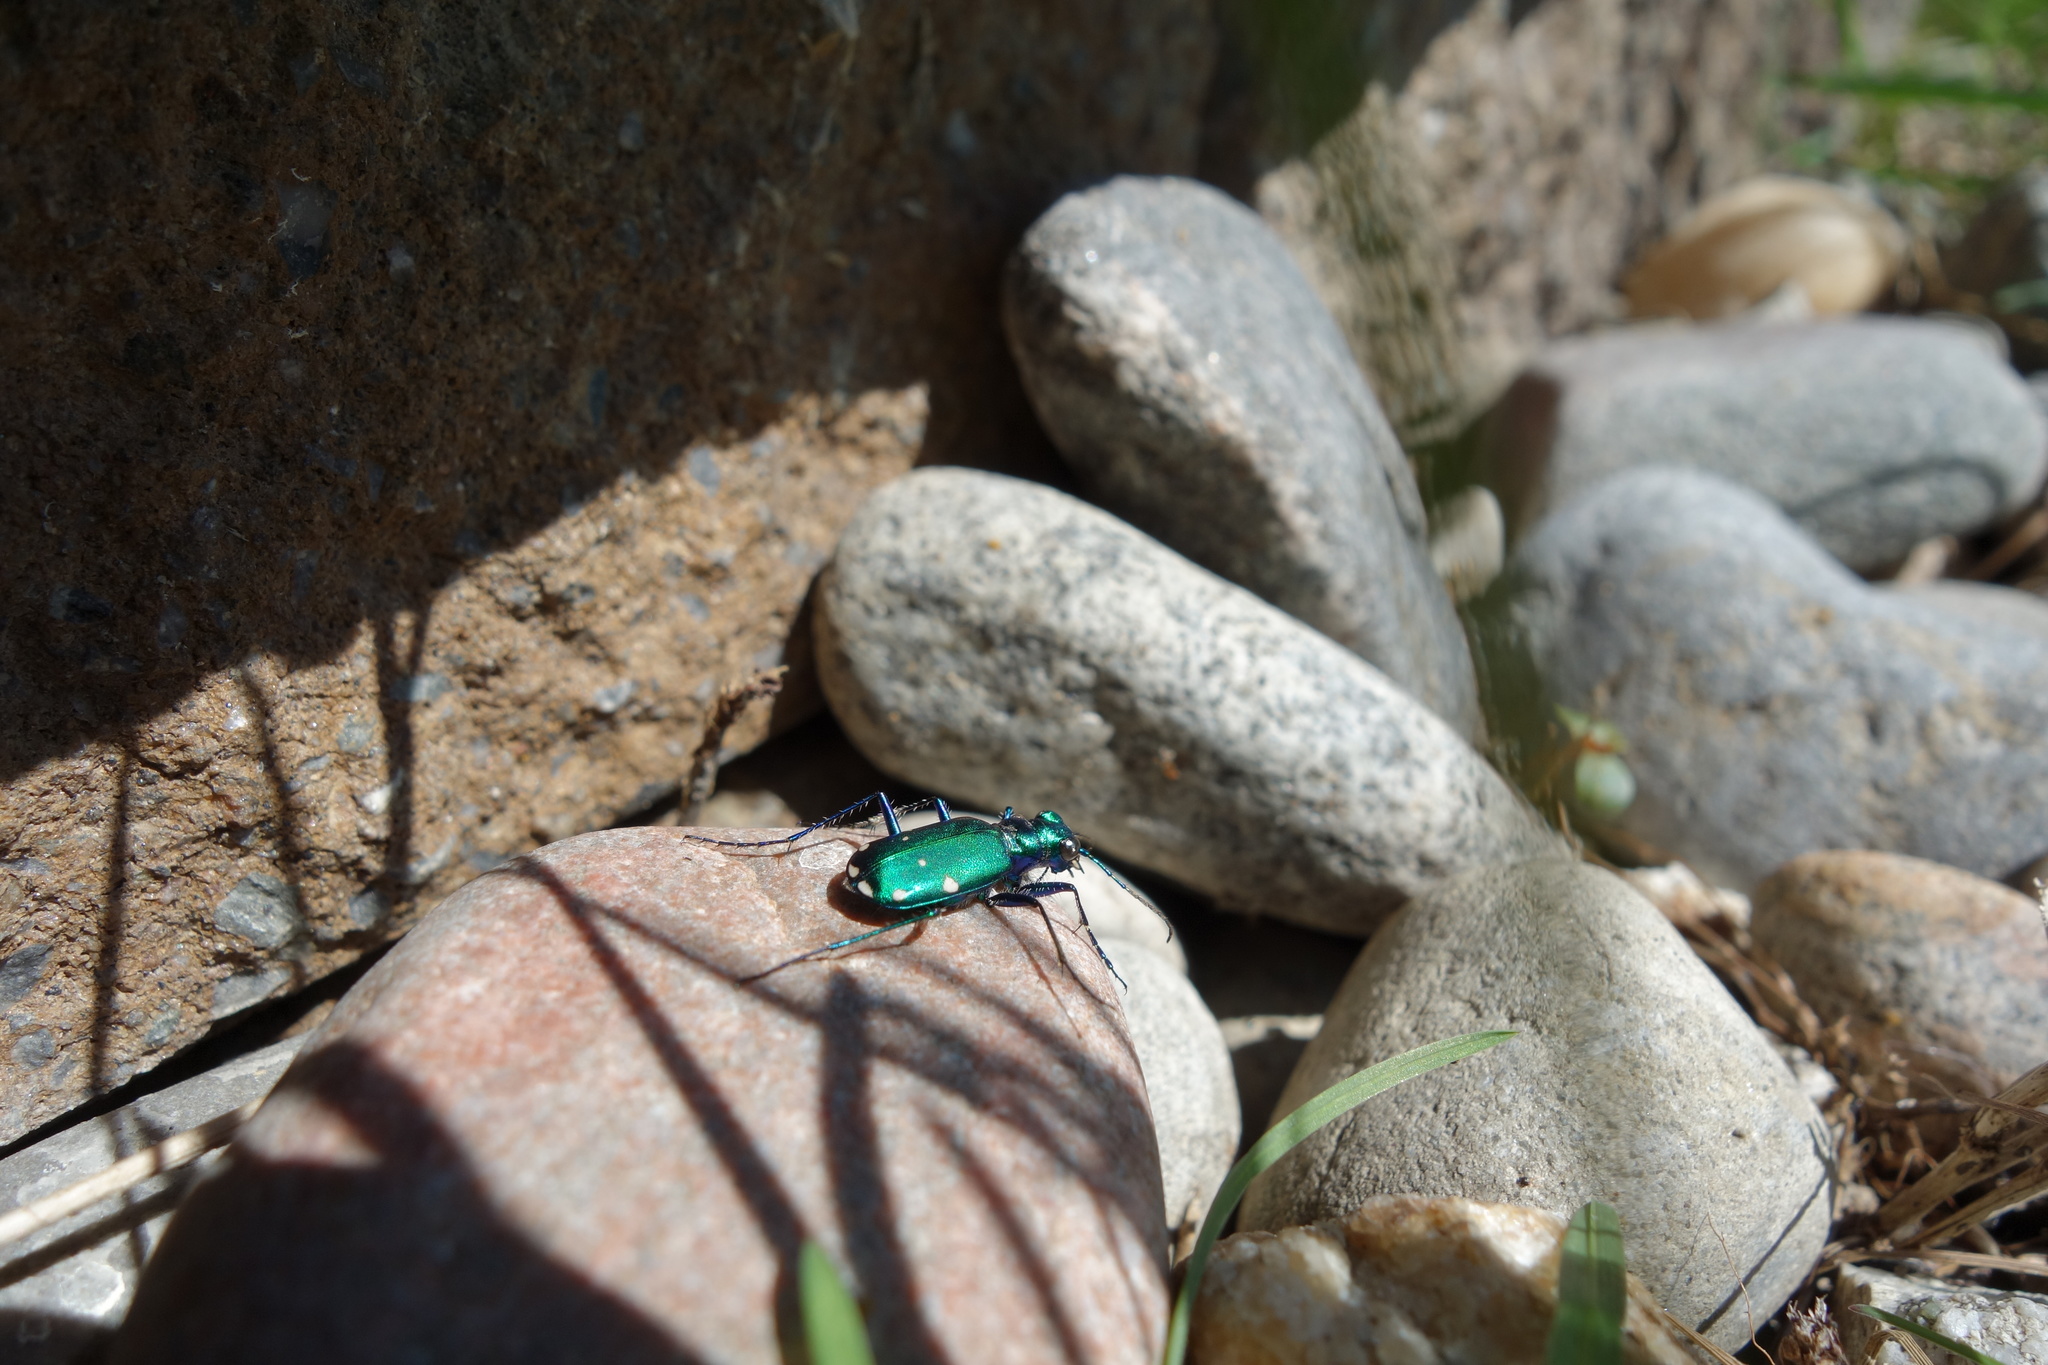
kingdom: Animalia
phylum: Arthropoda
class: Insecta
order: Coleoptera
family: Carabidae
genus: Cicindela
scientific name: Cicindela sexguttata
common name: Six-spotted tiger beetle
